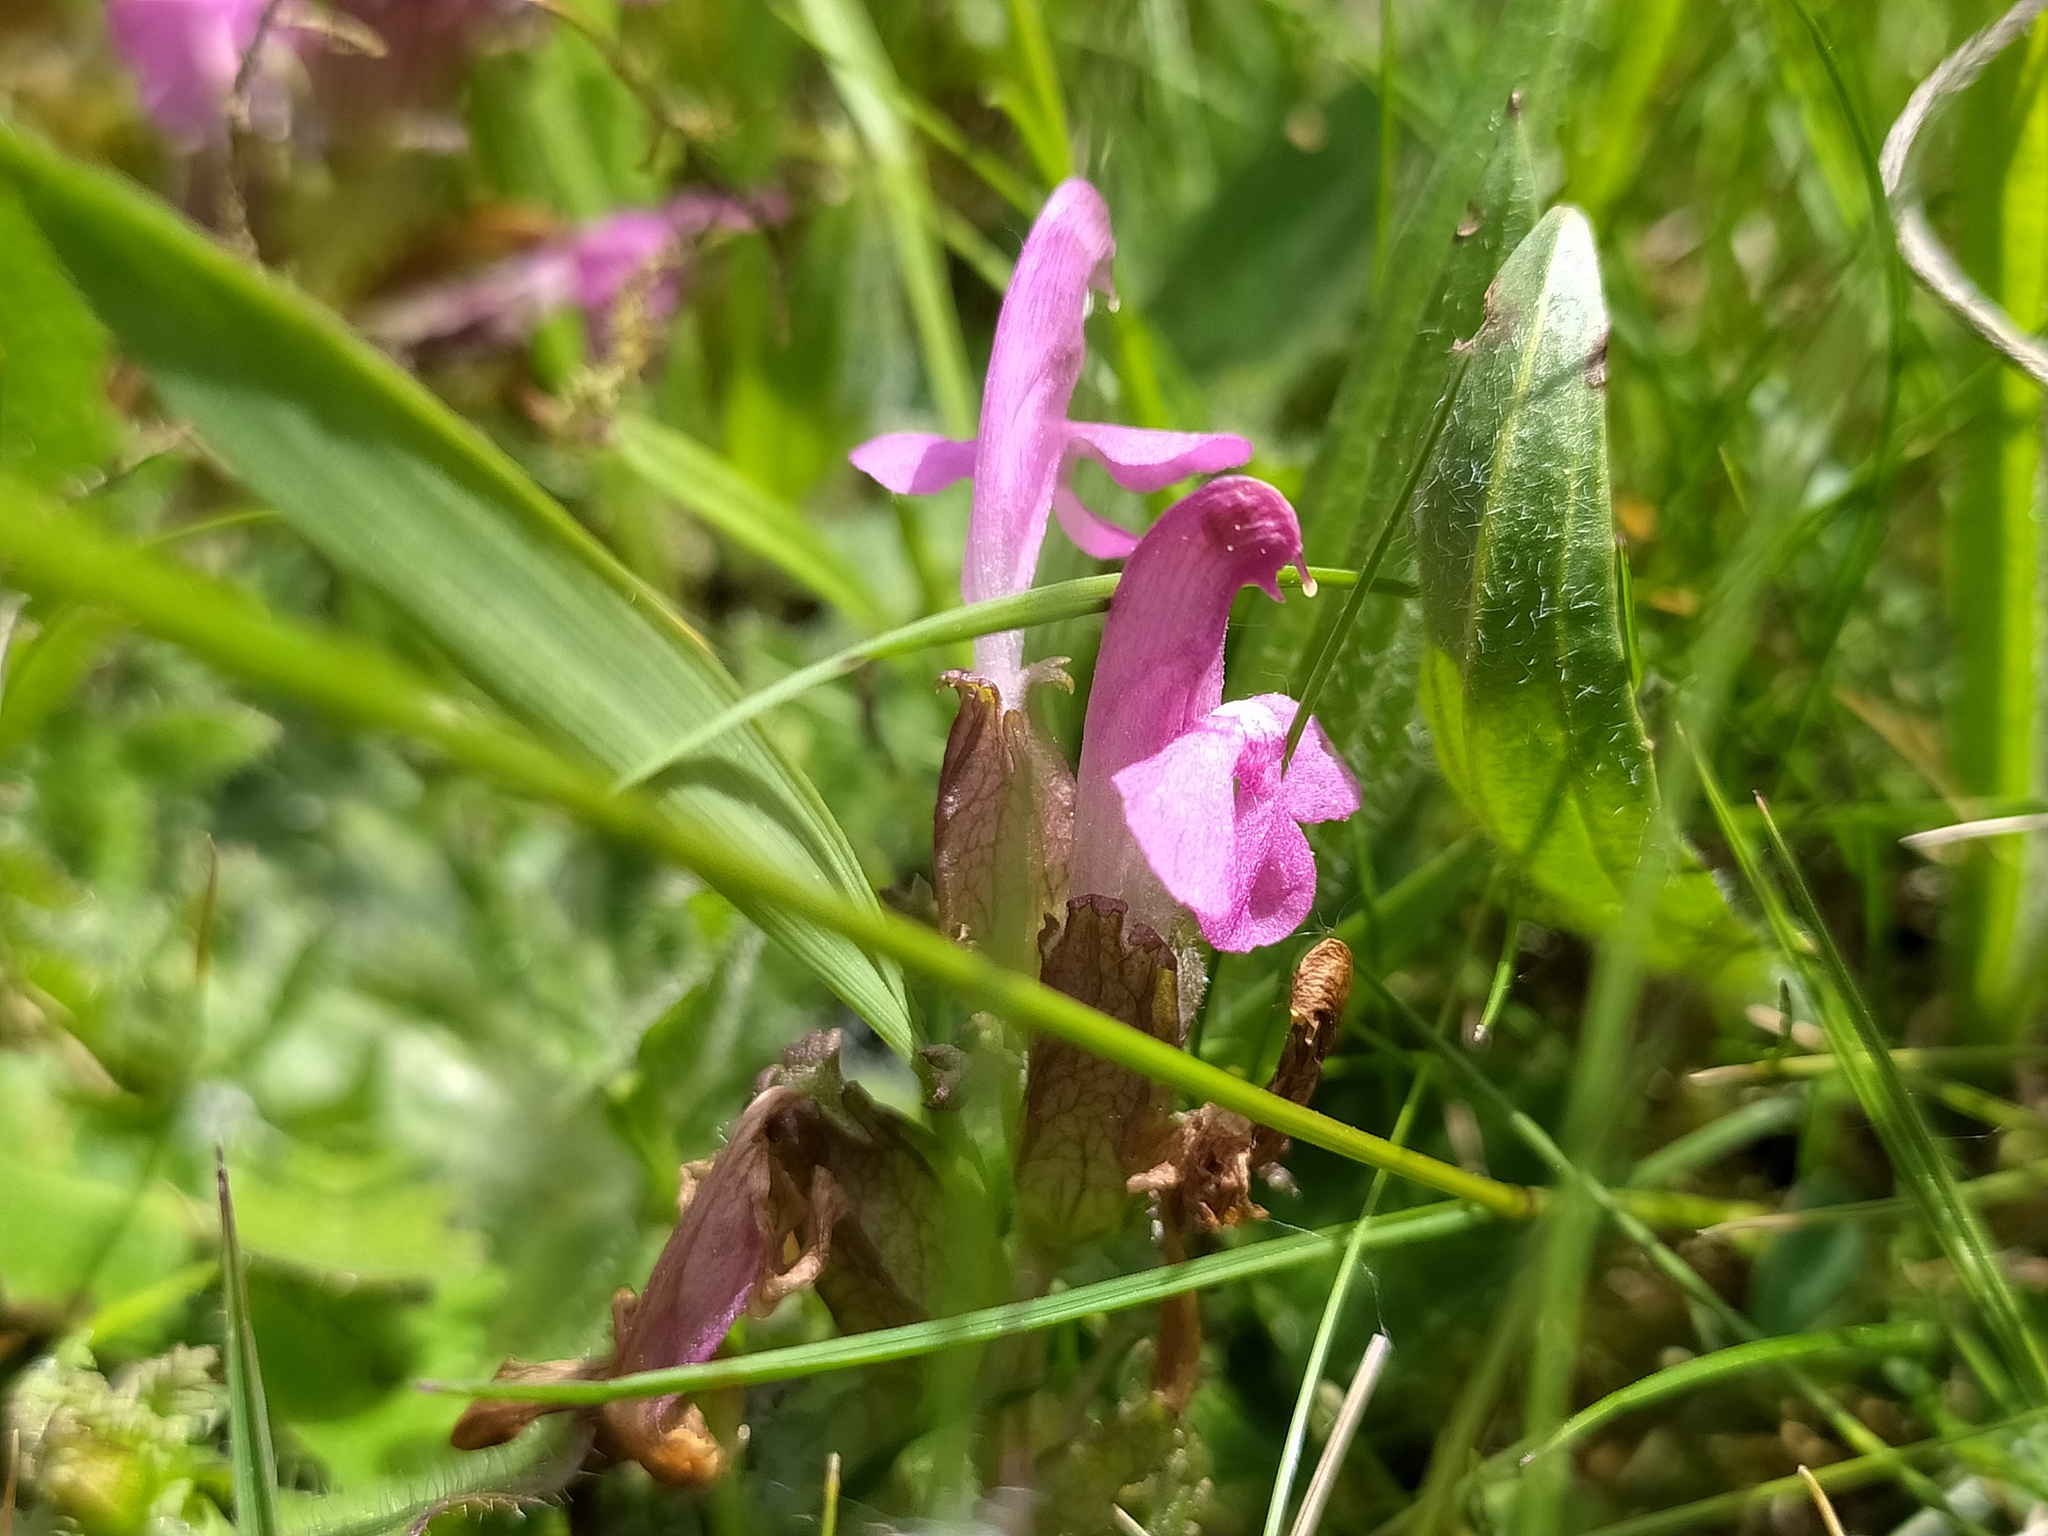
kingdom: Plantae
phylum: Tracheophyta
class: Magnoliopsida
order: Lamiales
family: Orobanchaceae
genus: Pedicularis
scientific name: Pedicularis sylvatica
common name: Lousewort
